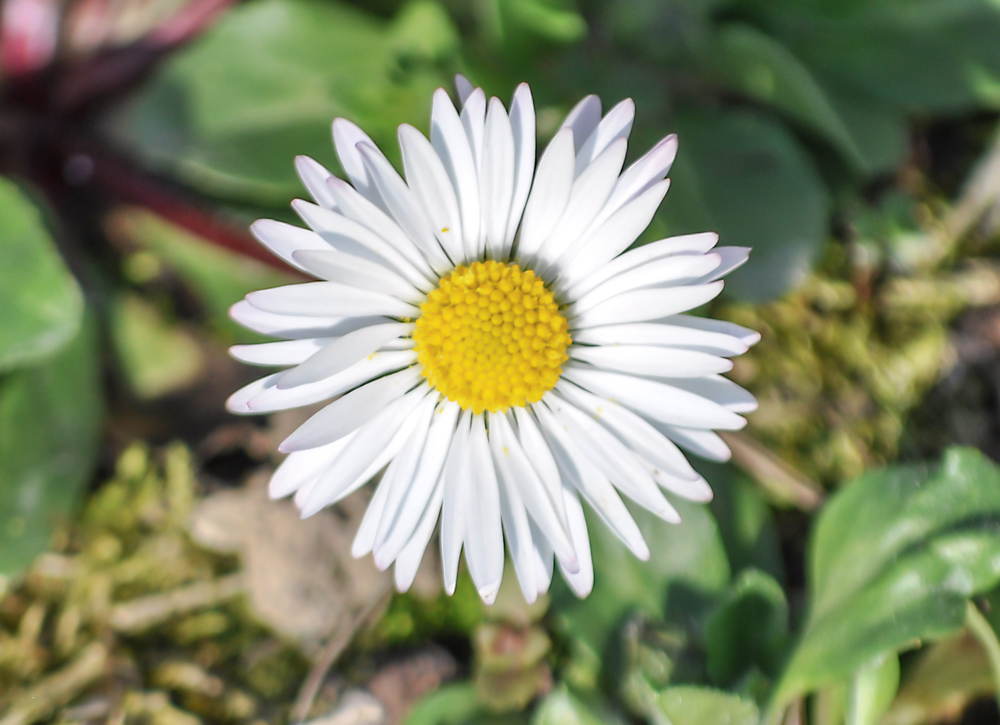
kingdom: Plantae
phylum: Tracheophyta
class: Magnoliopsida
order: Asterales
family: Asteraceae
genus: Bellis
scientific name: Bellis perennis
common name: Lawndaisy
